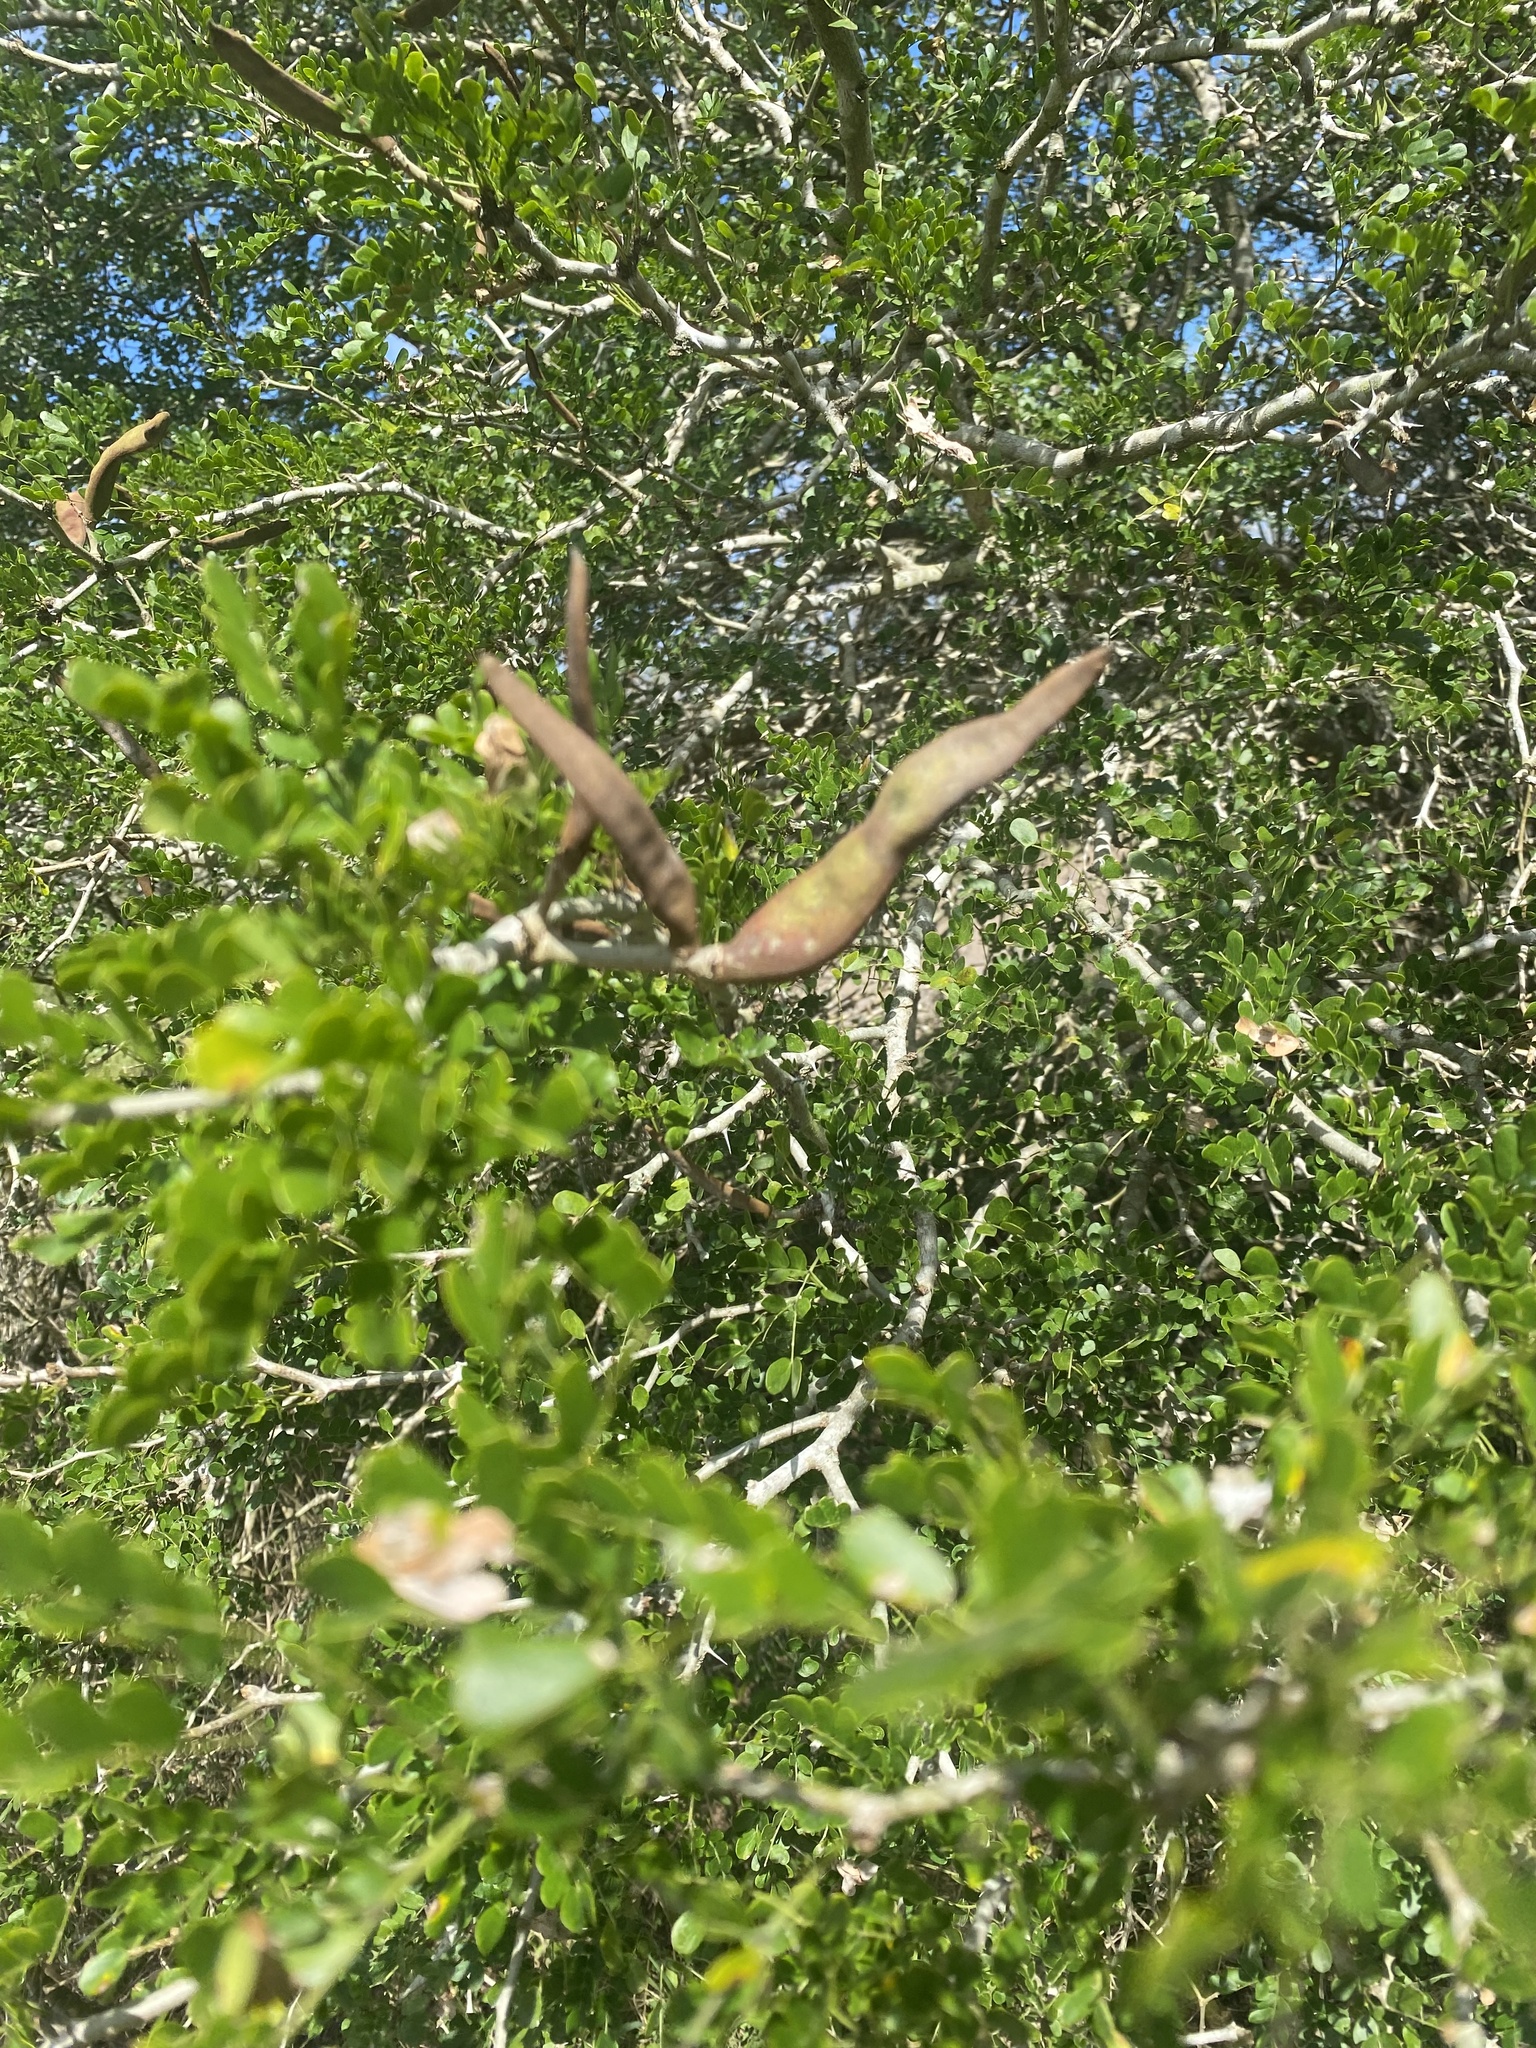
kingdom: Plantae
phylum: Tracheophyta
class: Magnoliopsida
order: Fabales
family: Fabaceae
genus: Ebenopsis
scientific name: Ebenopsis ebano
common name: Ebony blackbead
